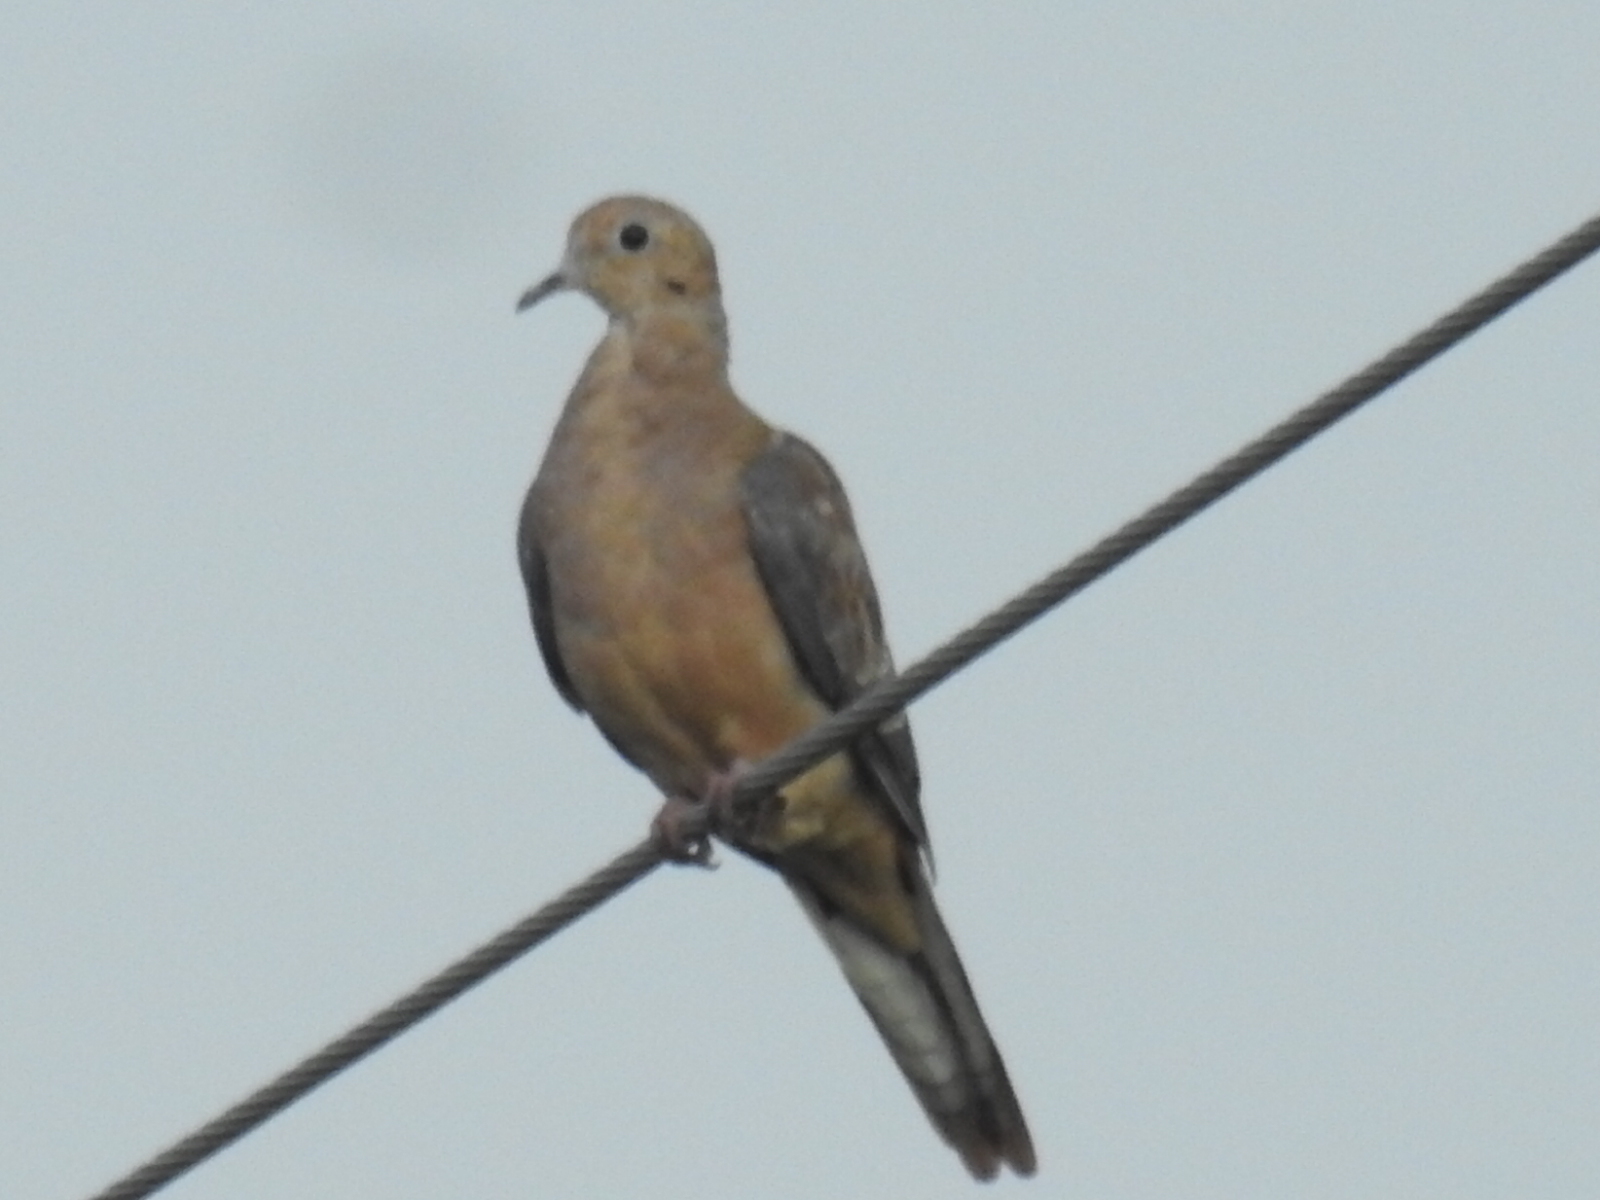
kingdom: Animalia
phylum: Chordata
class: Aves
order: Columbiformes
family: Columbidae
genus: Zenaida
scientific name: Zenaida macroura
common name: Mourning dove
